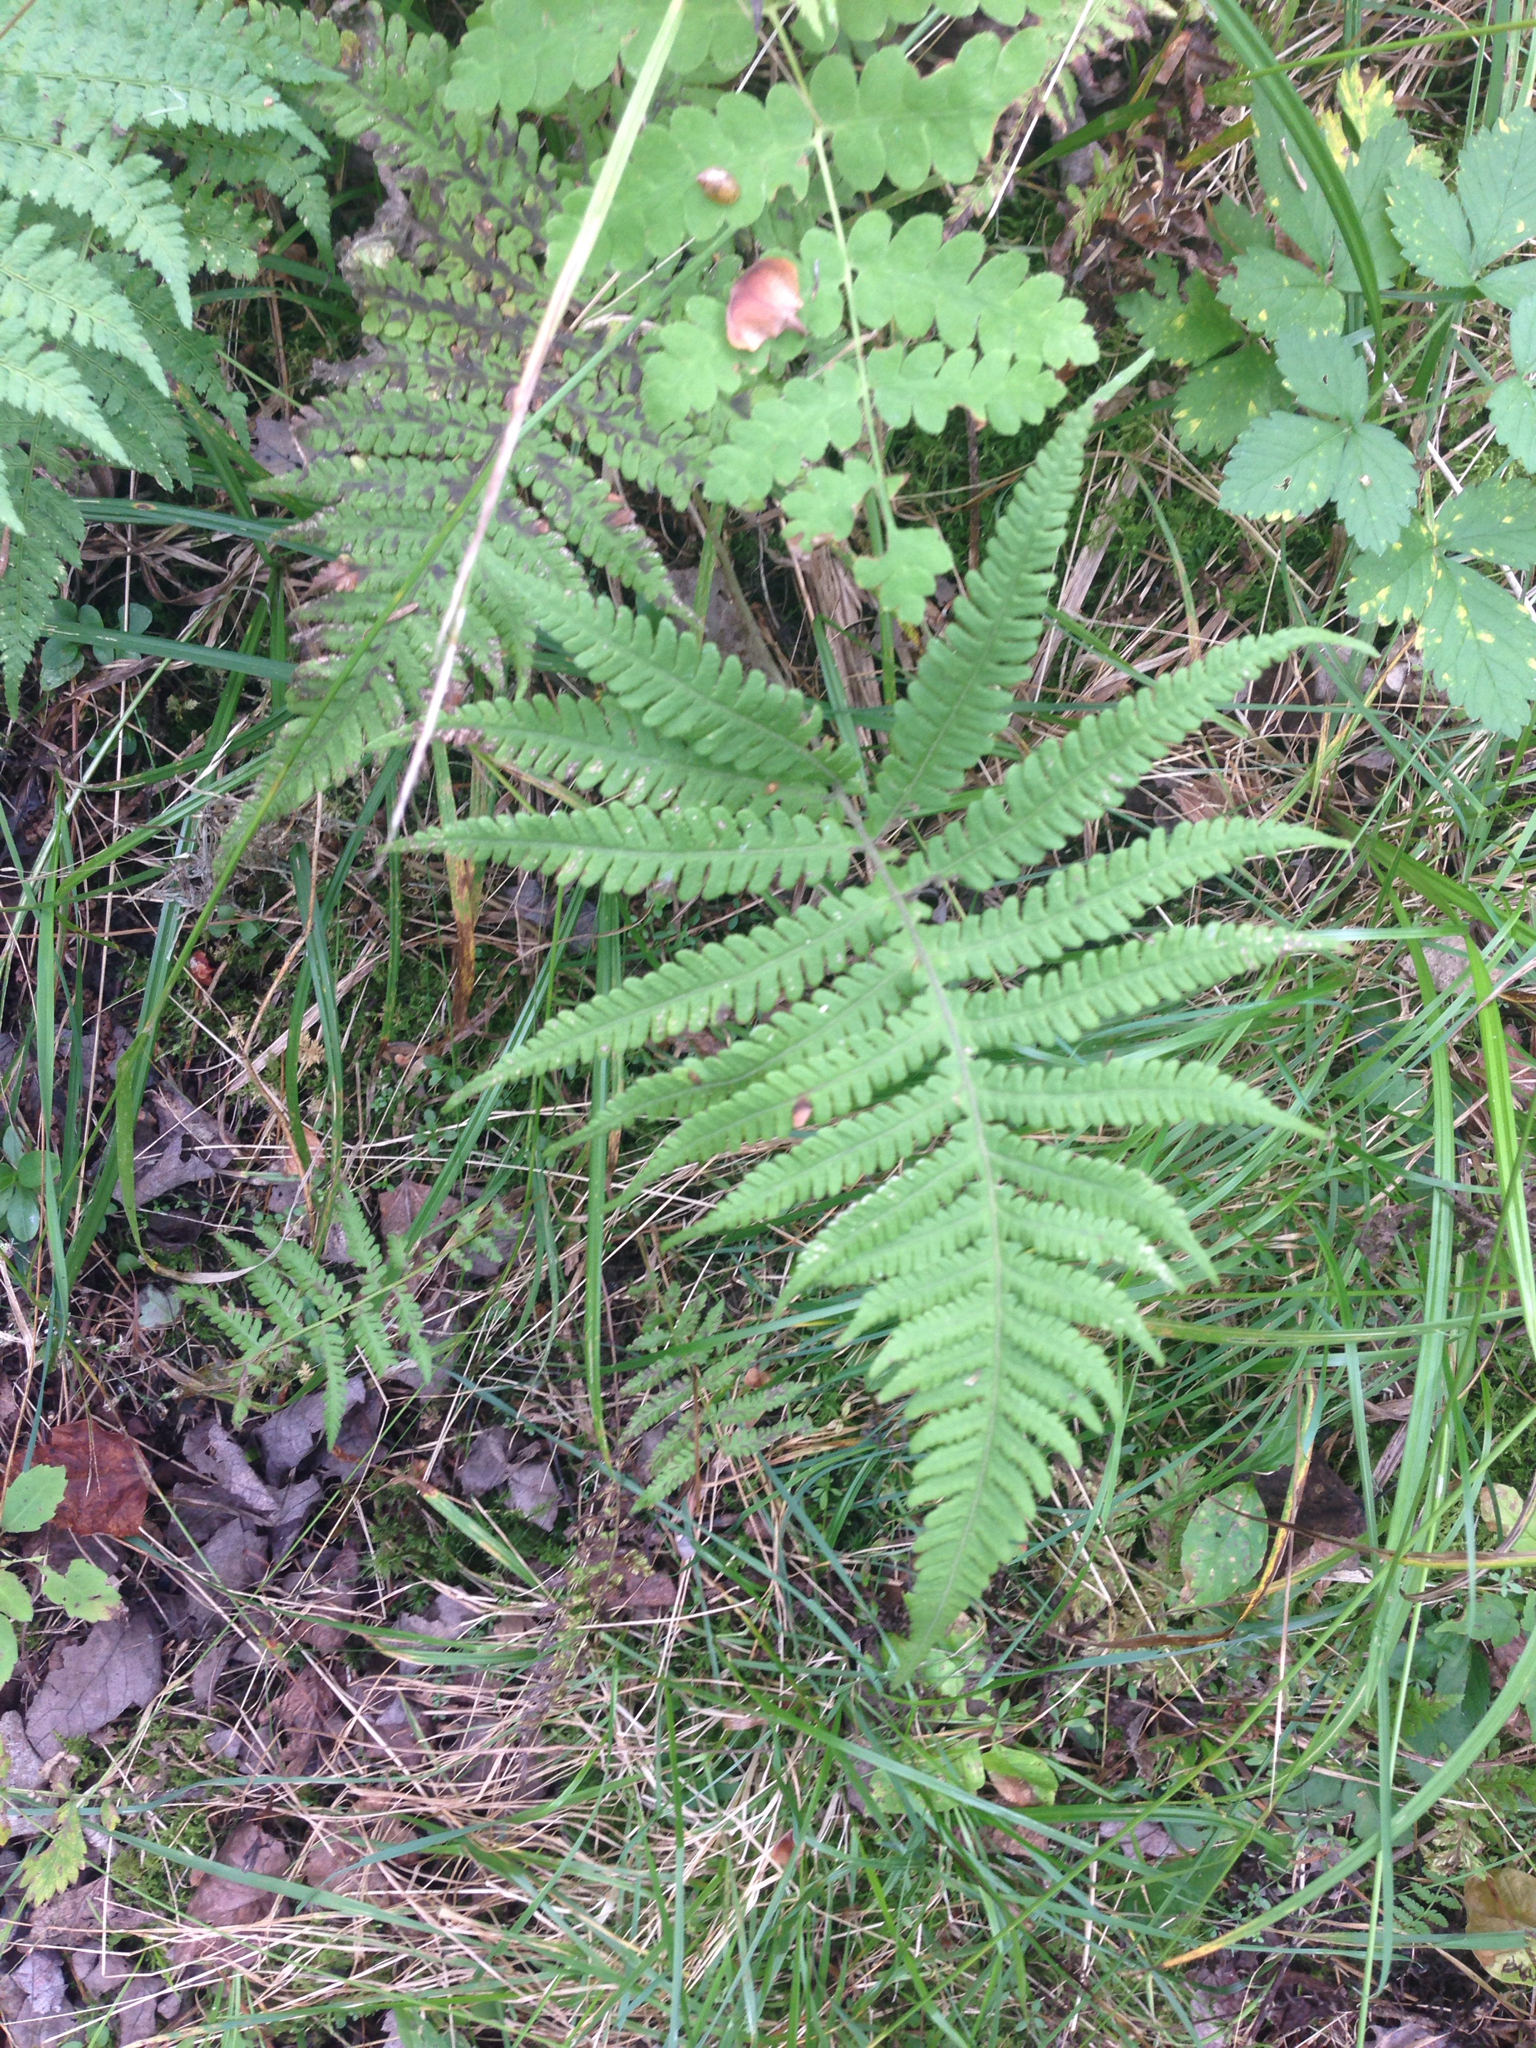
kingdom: Plantae
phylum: Tracheophyta
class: Polypodiopsida
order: Polypodiales
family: Thelypteridaceae
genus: Phegopteris
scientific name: Phegopteris connectilis
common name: Beech fern
